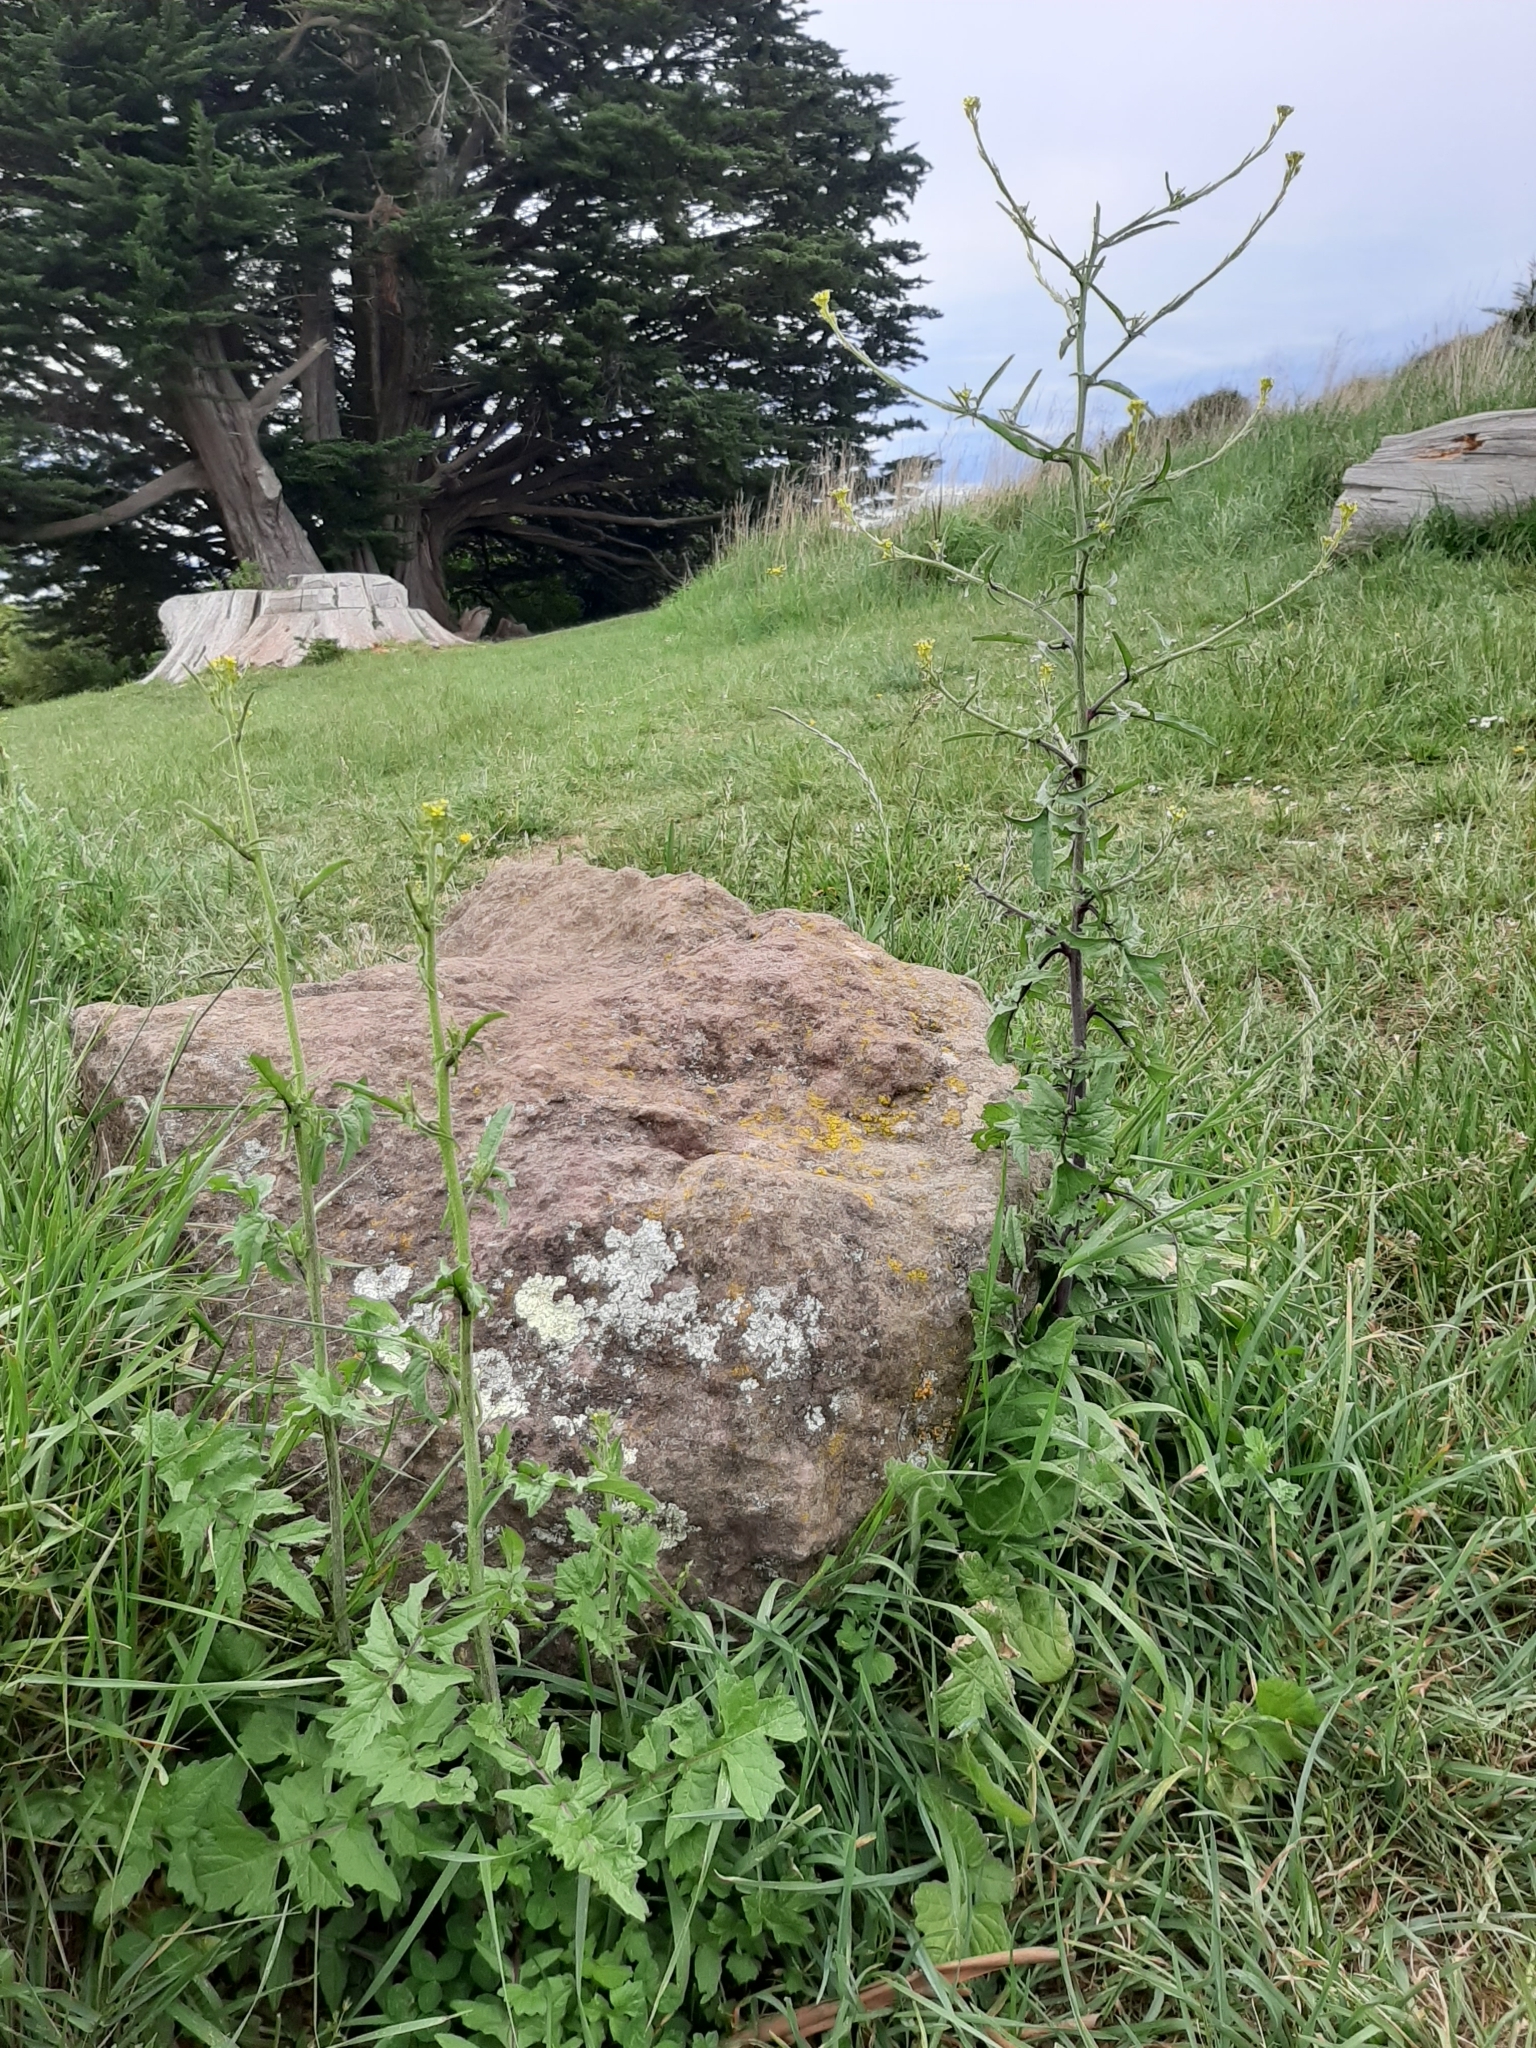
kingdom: Plantae
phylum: Tracheophyta
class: Magnoliopsida
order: Brassicales
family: Brassicaceae
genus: Sisymbrium
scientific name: Sisymbrium officinale
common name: Hedge mustard
